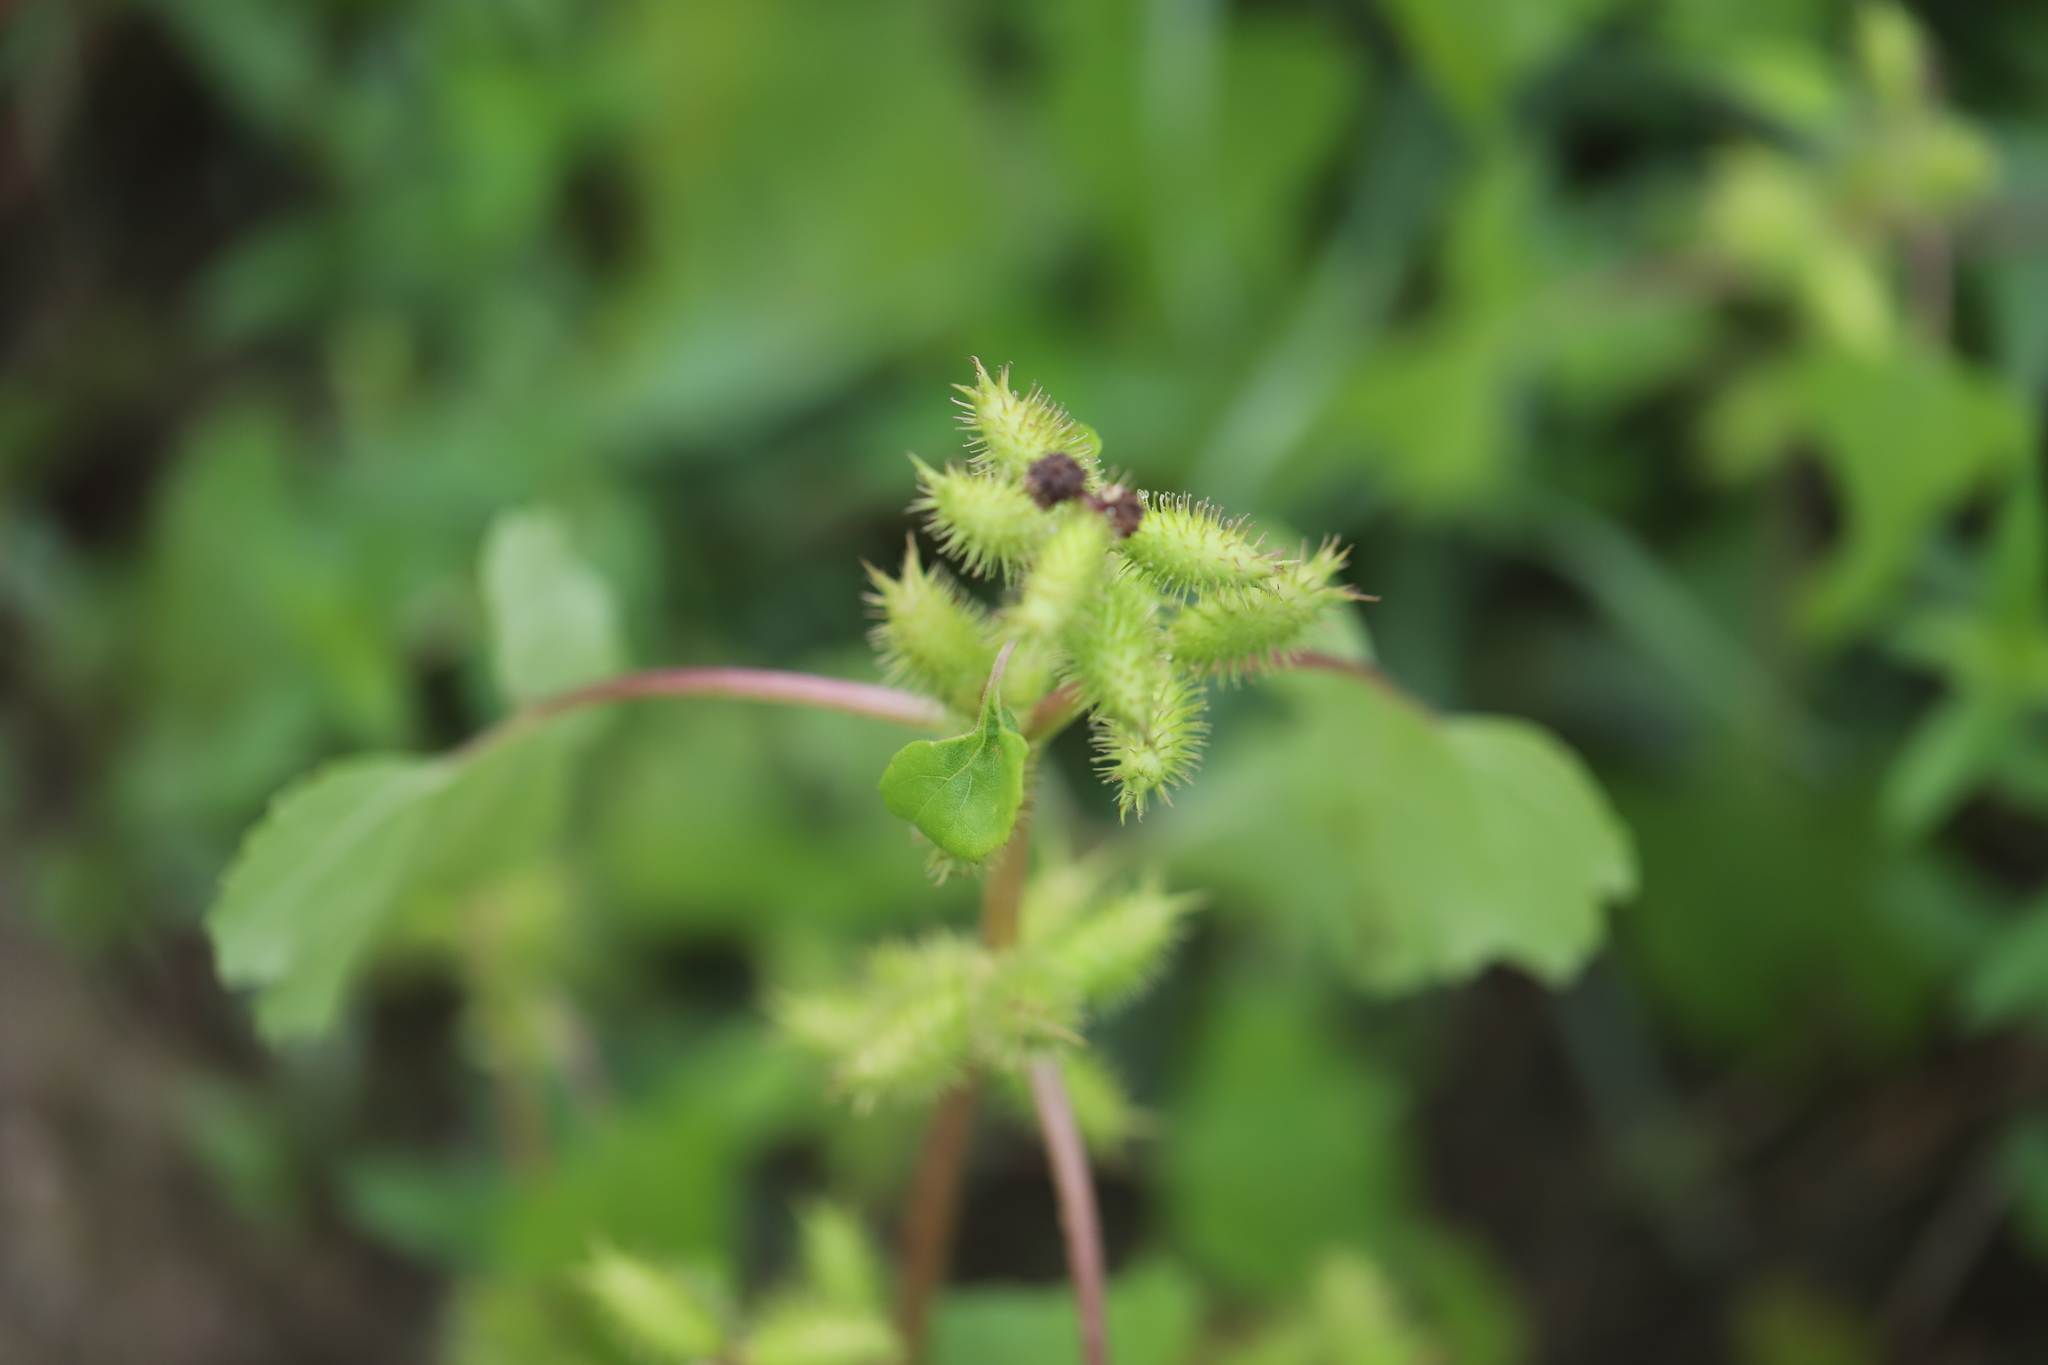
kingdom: Plantae
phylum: Tracheophyta
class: Magnoliopsida
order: Asterales
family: Asteraceae
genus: Xanthium
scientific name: Xanthium strumarium
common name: Rough cocklebur
